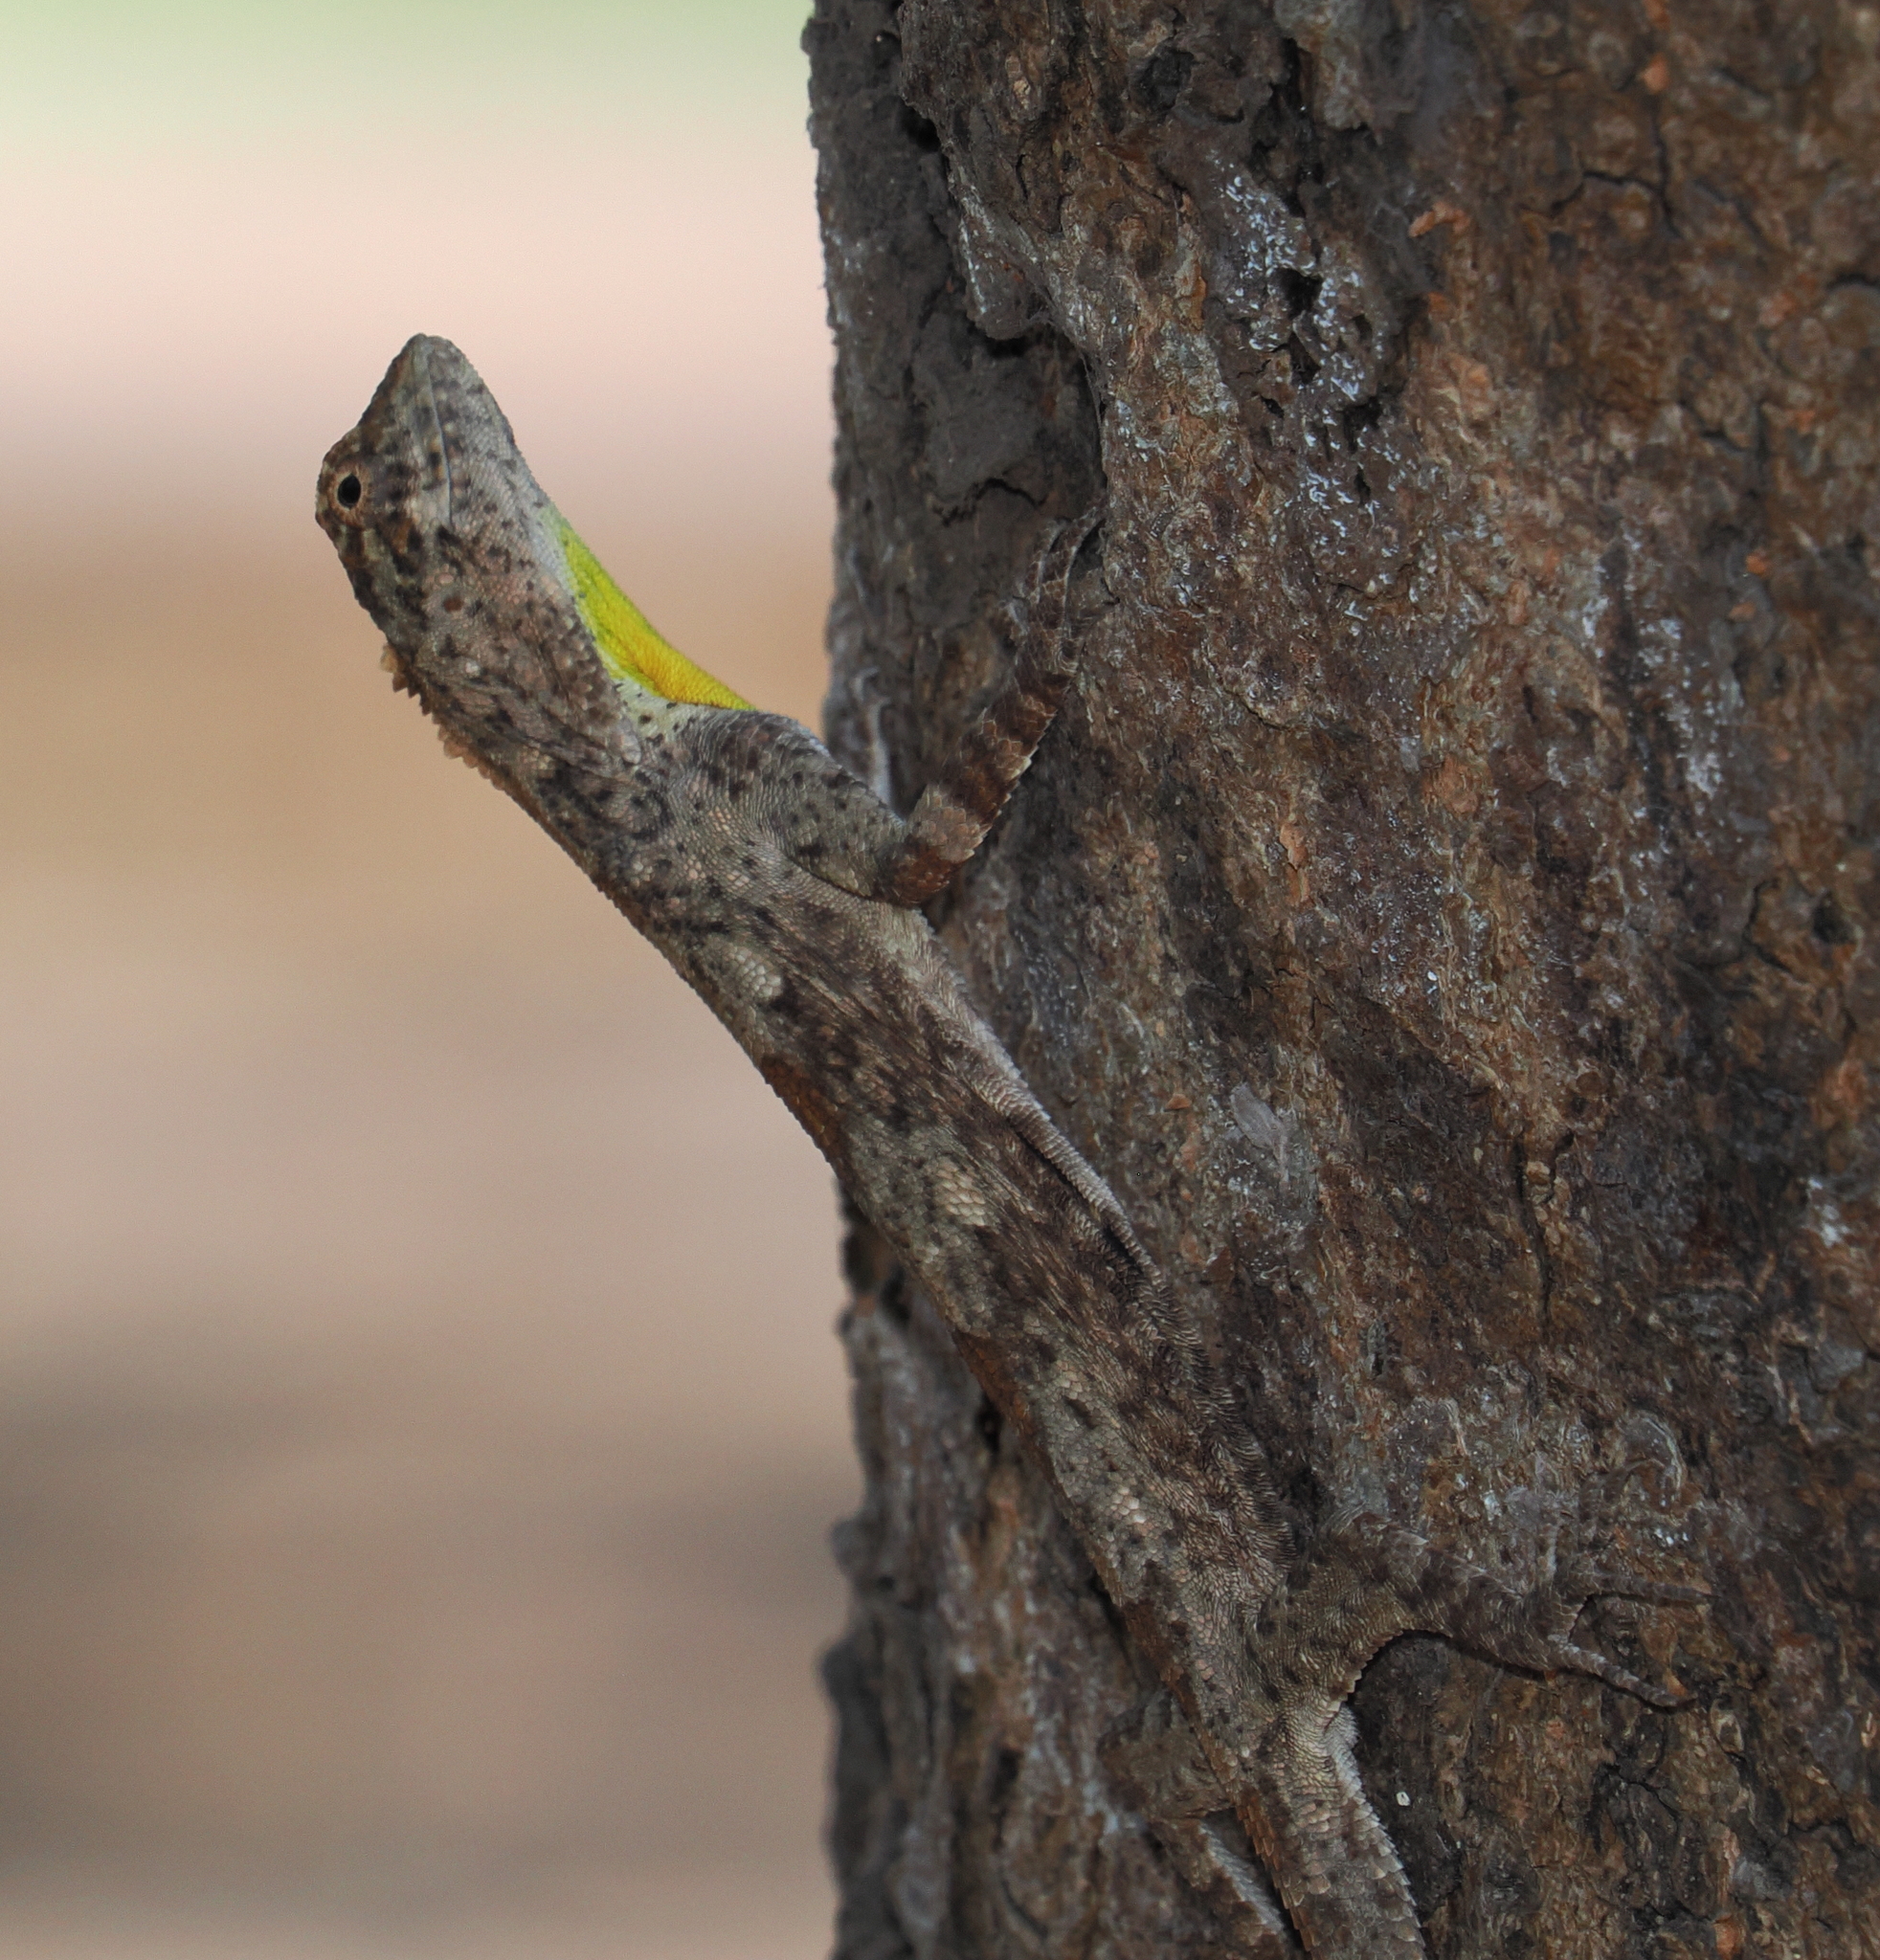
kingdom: Animalia
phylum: Chordata
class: Squamata
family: Agamidae
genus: Draco
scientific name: Draco volans
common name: Common flying dragon
